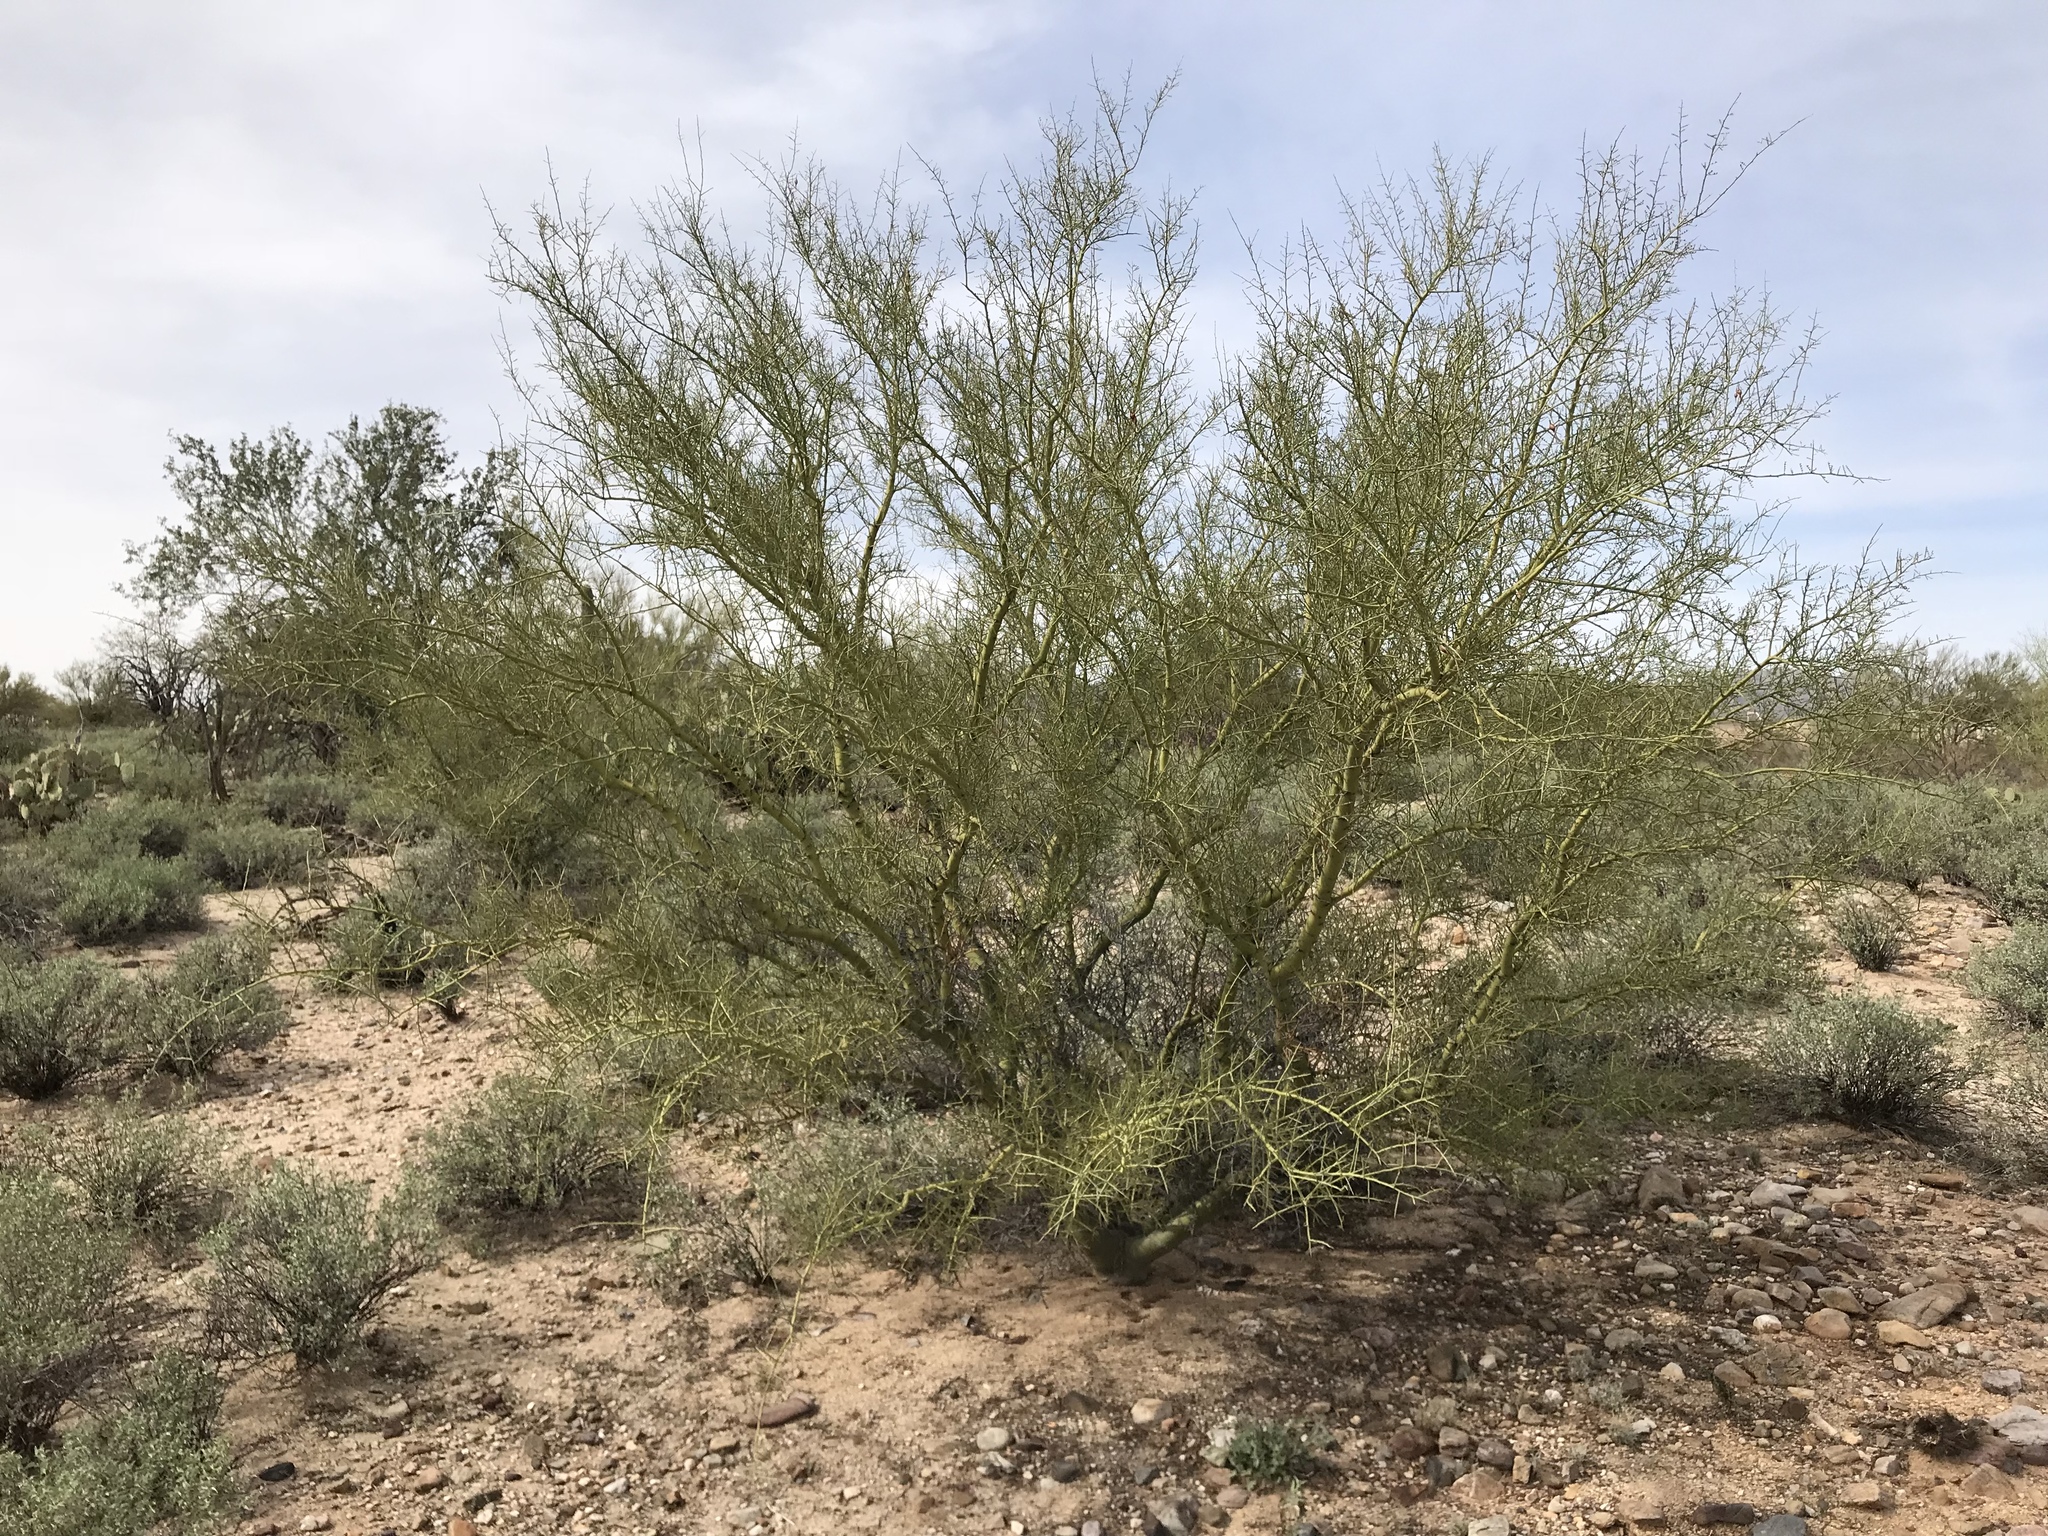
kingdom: Plantae
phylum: Tracheophyta
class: Magnoliopsida
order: Fabales
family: Fabaceae
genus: Parkinsonia
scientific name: Parkinsonia microphylla
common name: Yellow paloverde
